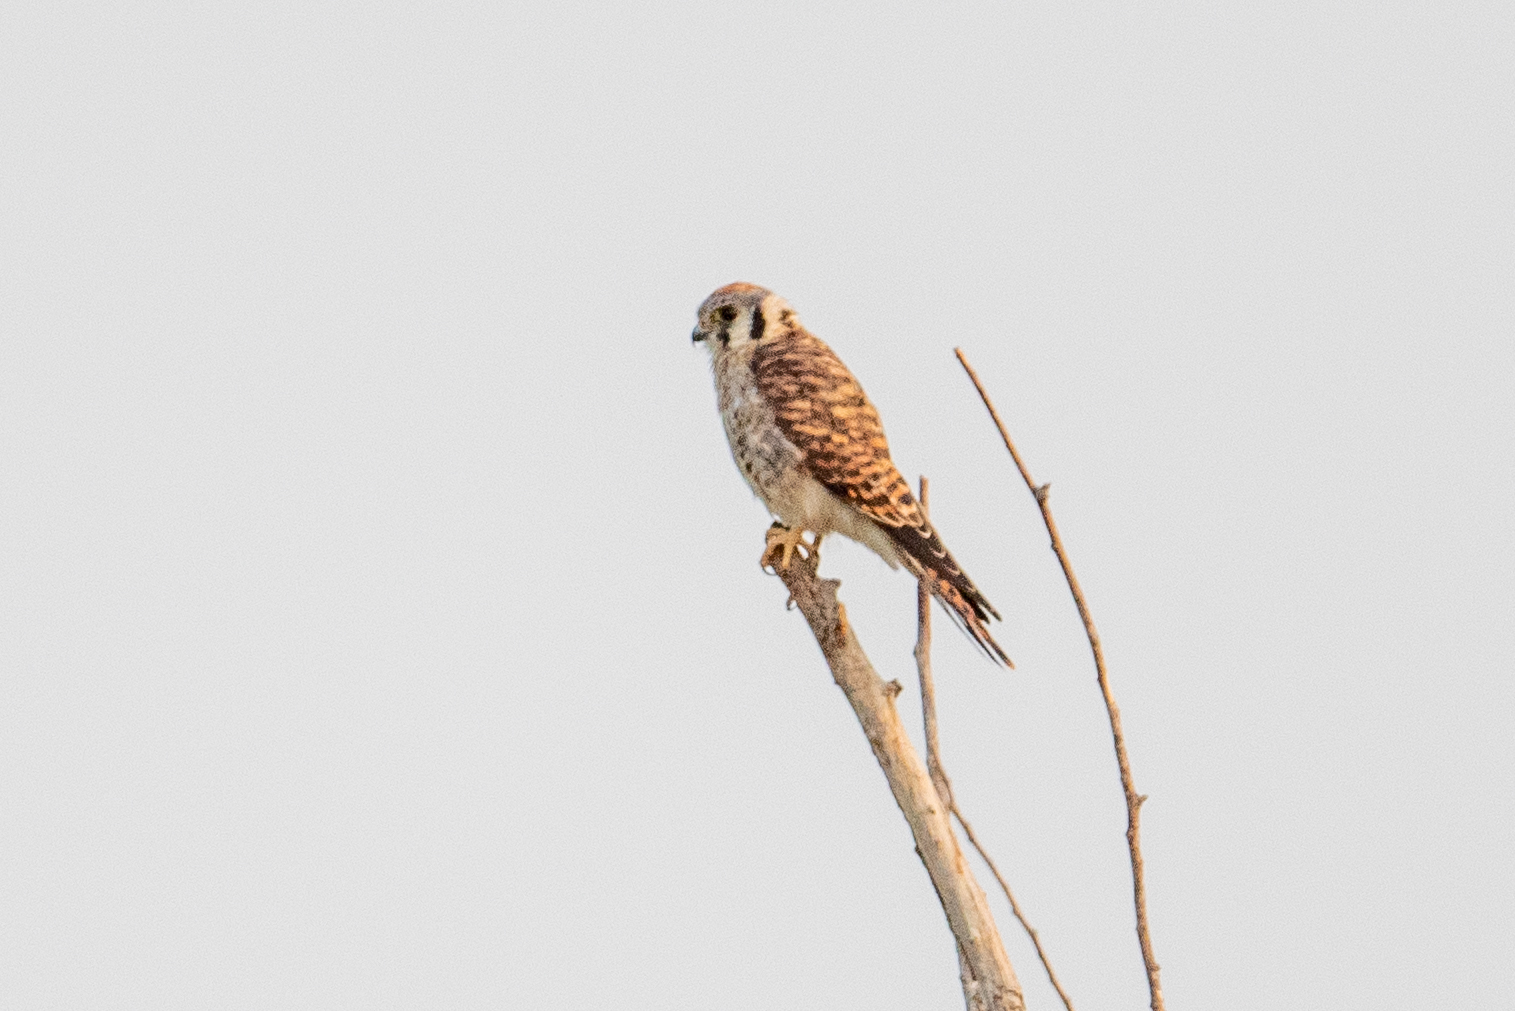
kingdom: Animalia
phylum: Chordata
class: Aves
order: Falconiformes
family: Falconidae
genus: Falco
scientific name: Falco sparverius
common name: American kestrel
